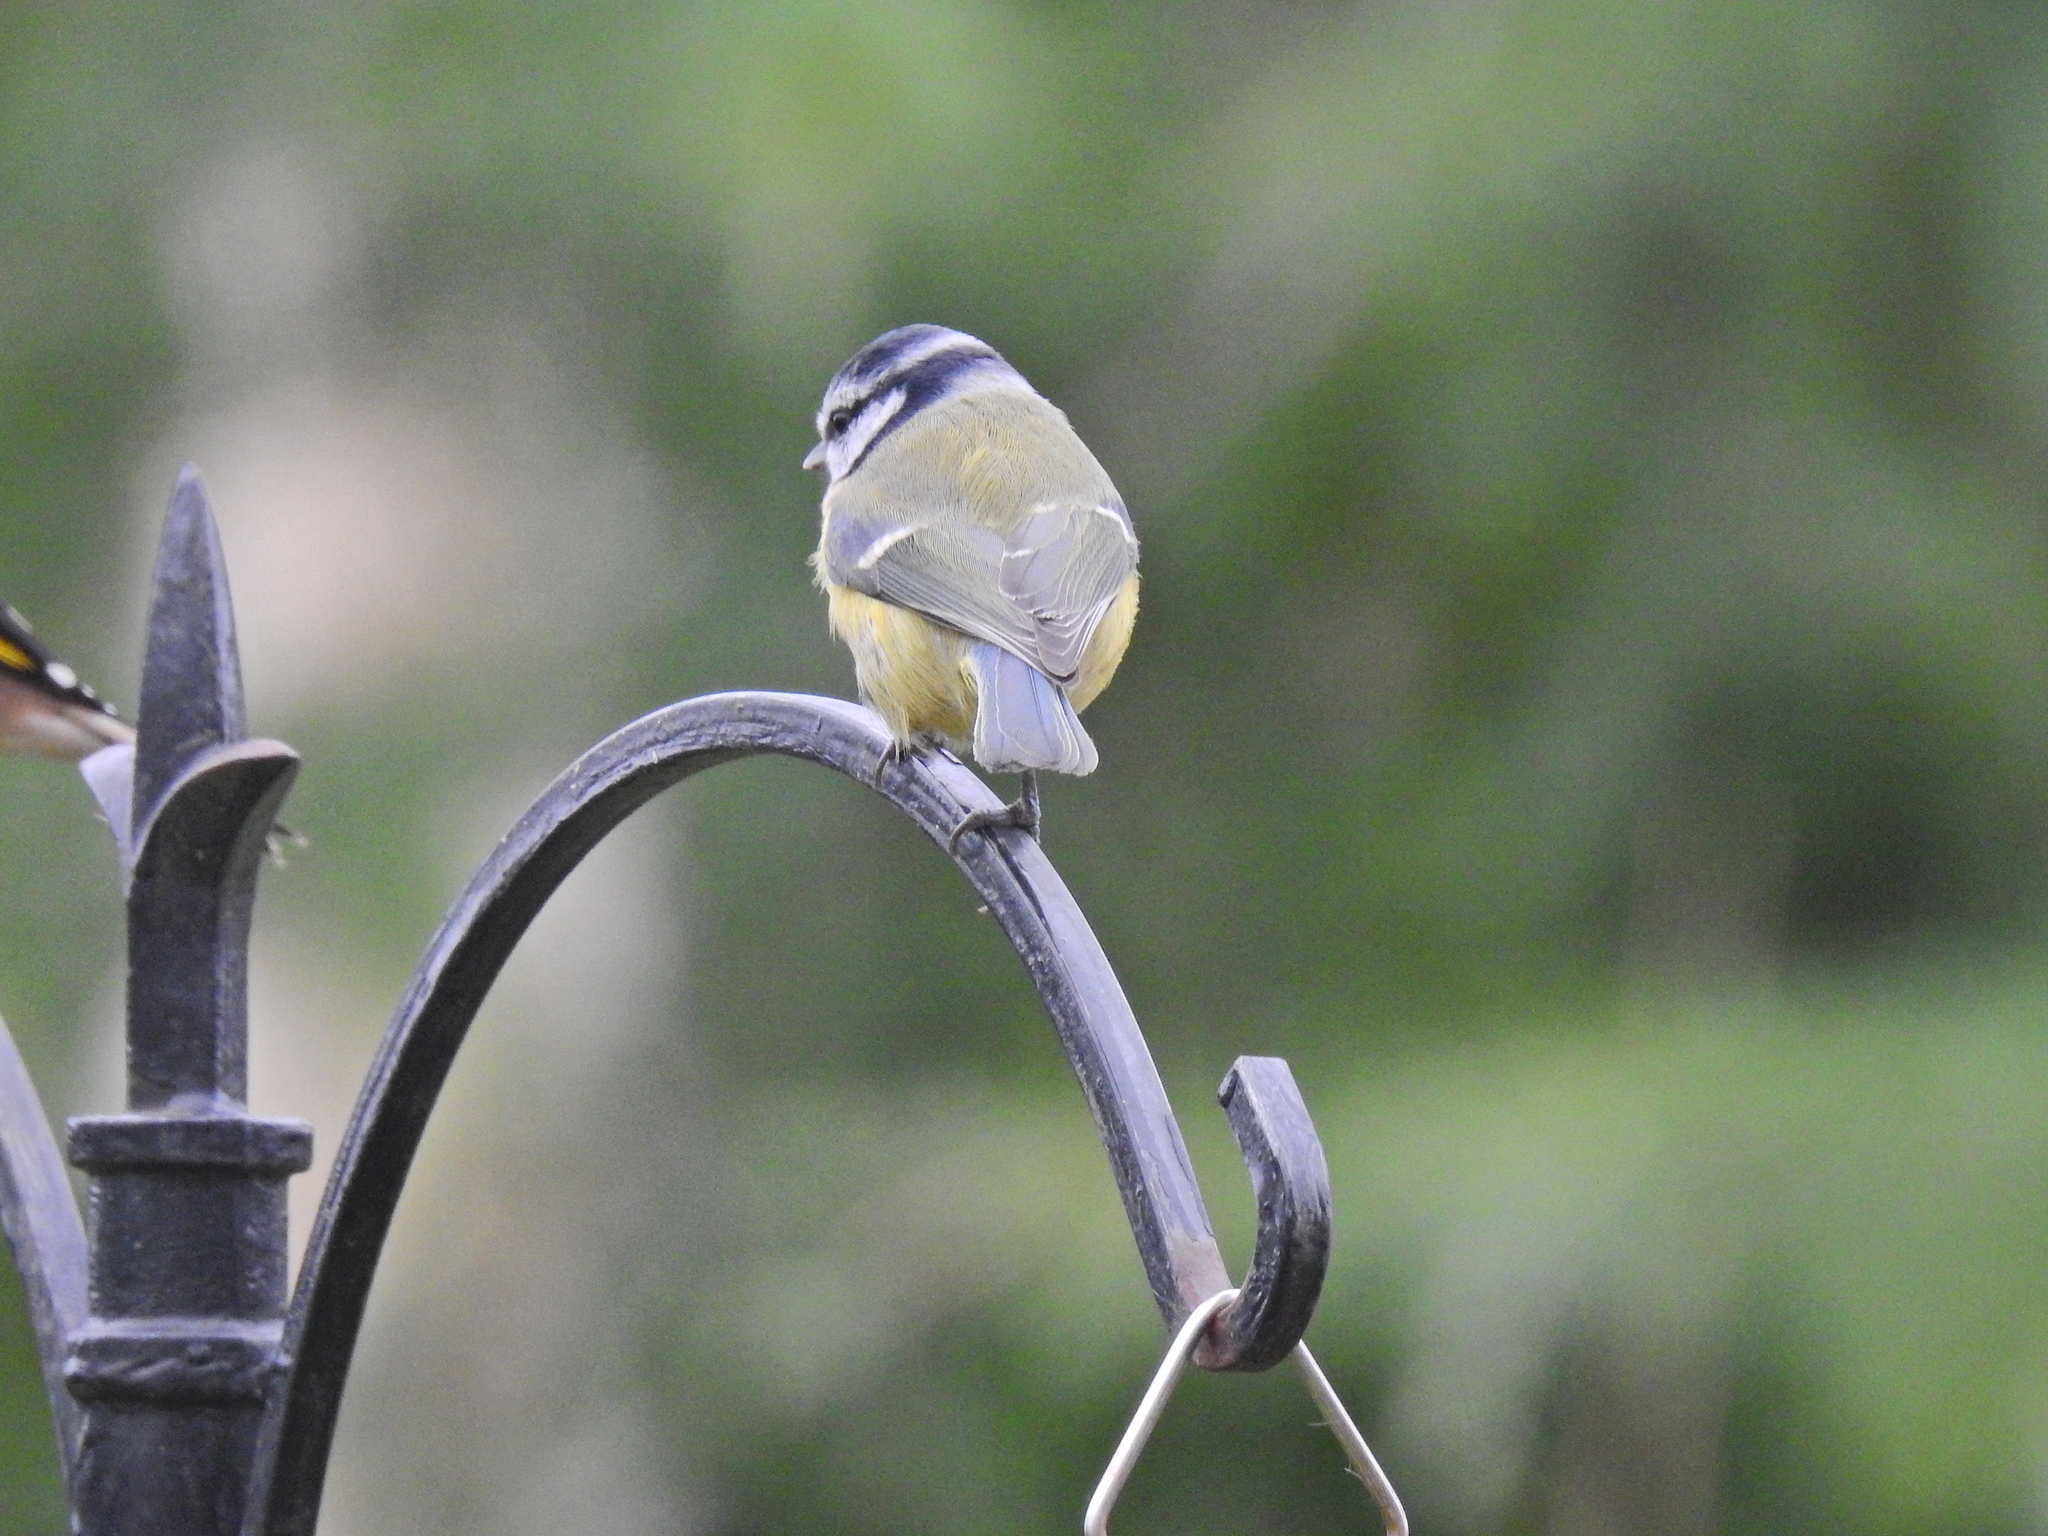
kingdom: Animalia
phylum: Chordata
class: Aves
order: Passeriformes
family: Paridae
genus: Cyanistes
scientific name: Cyanistes caeruleus
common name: Eurasian blue tit
